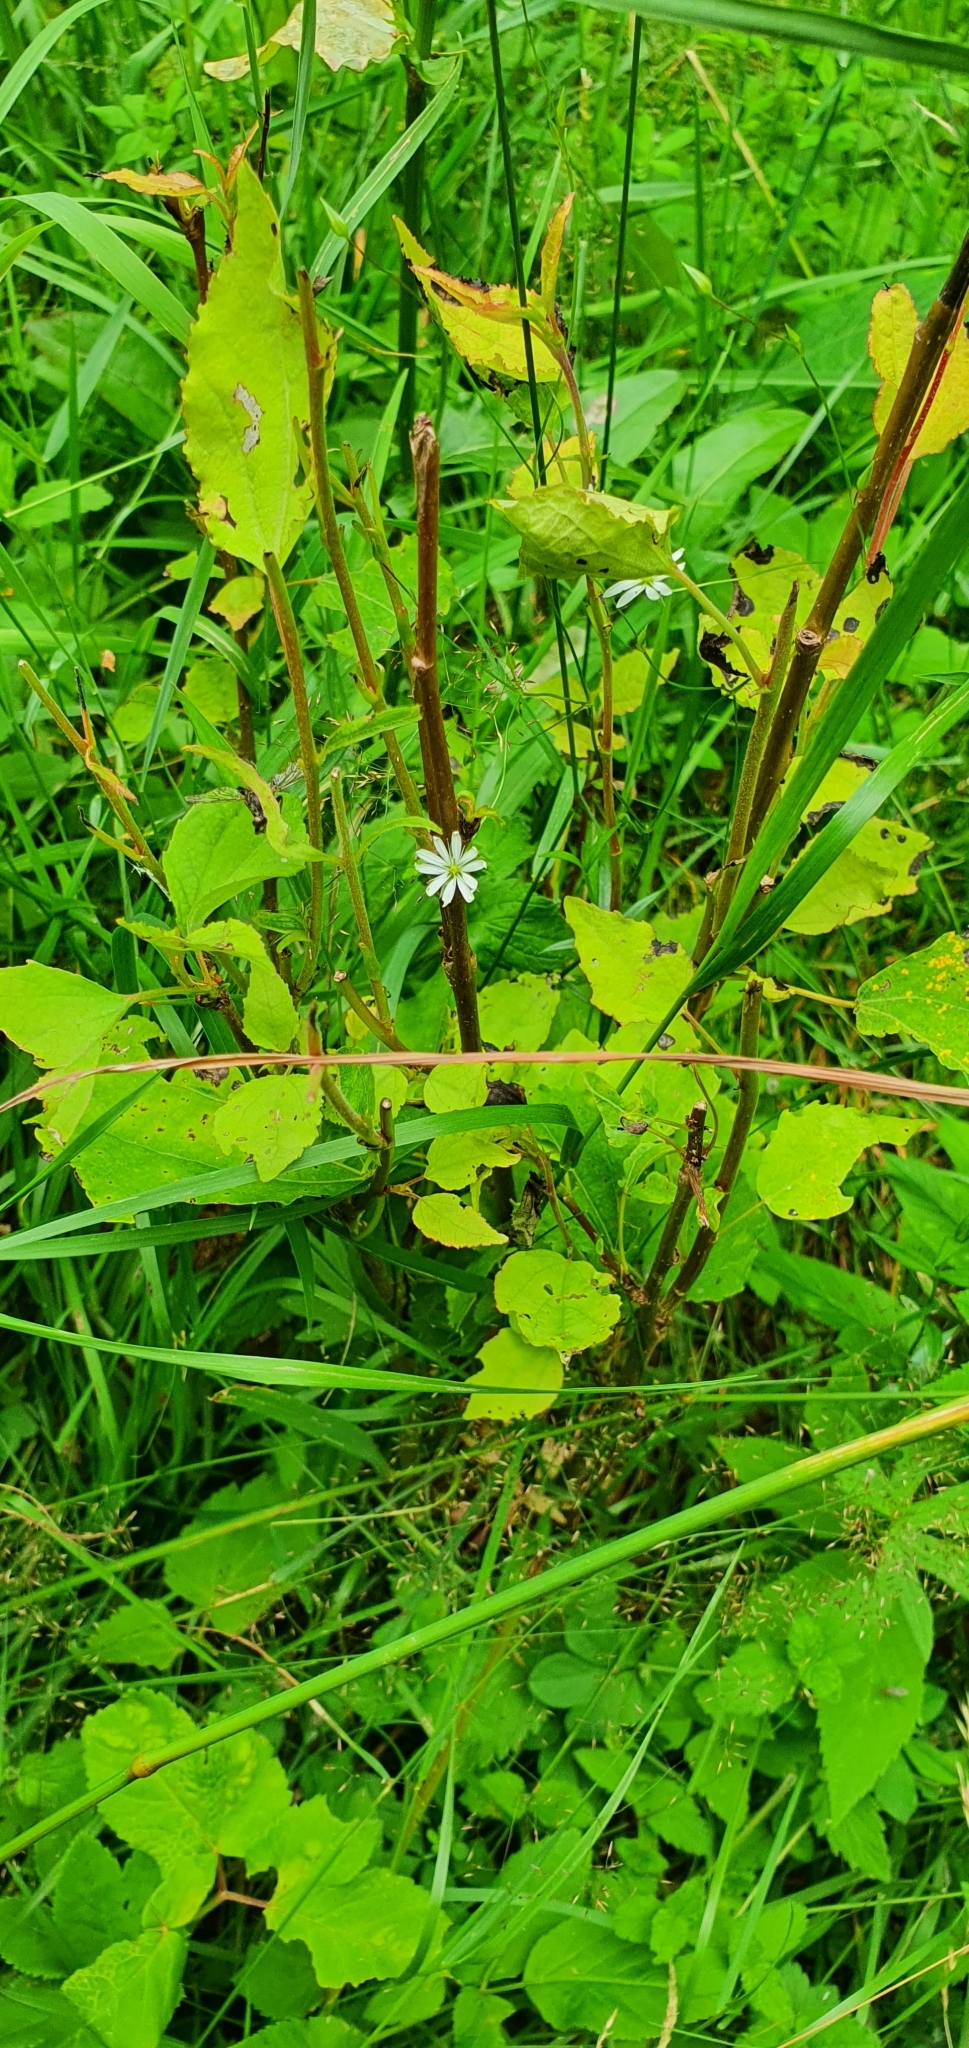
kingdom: Plantae
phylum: Tracheophyta
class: Magnoliopsida
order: Caryophyllales
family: Caryophyllaceae
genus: Stellaria
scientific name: Stellaria graminea
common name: Grass-like starwort
